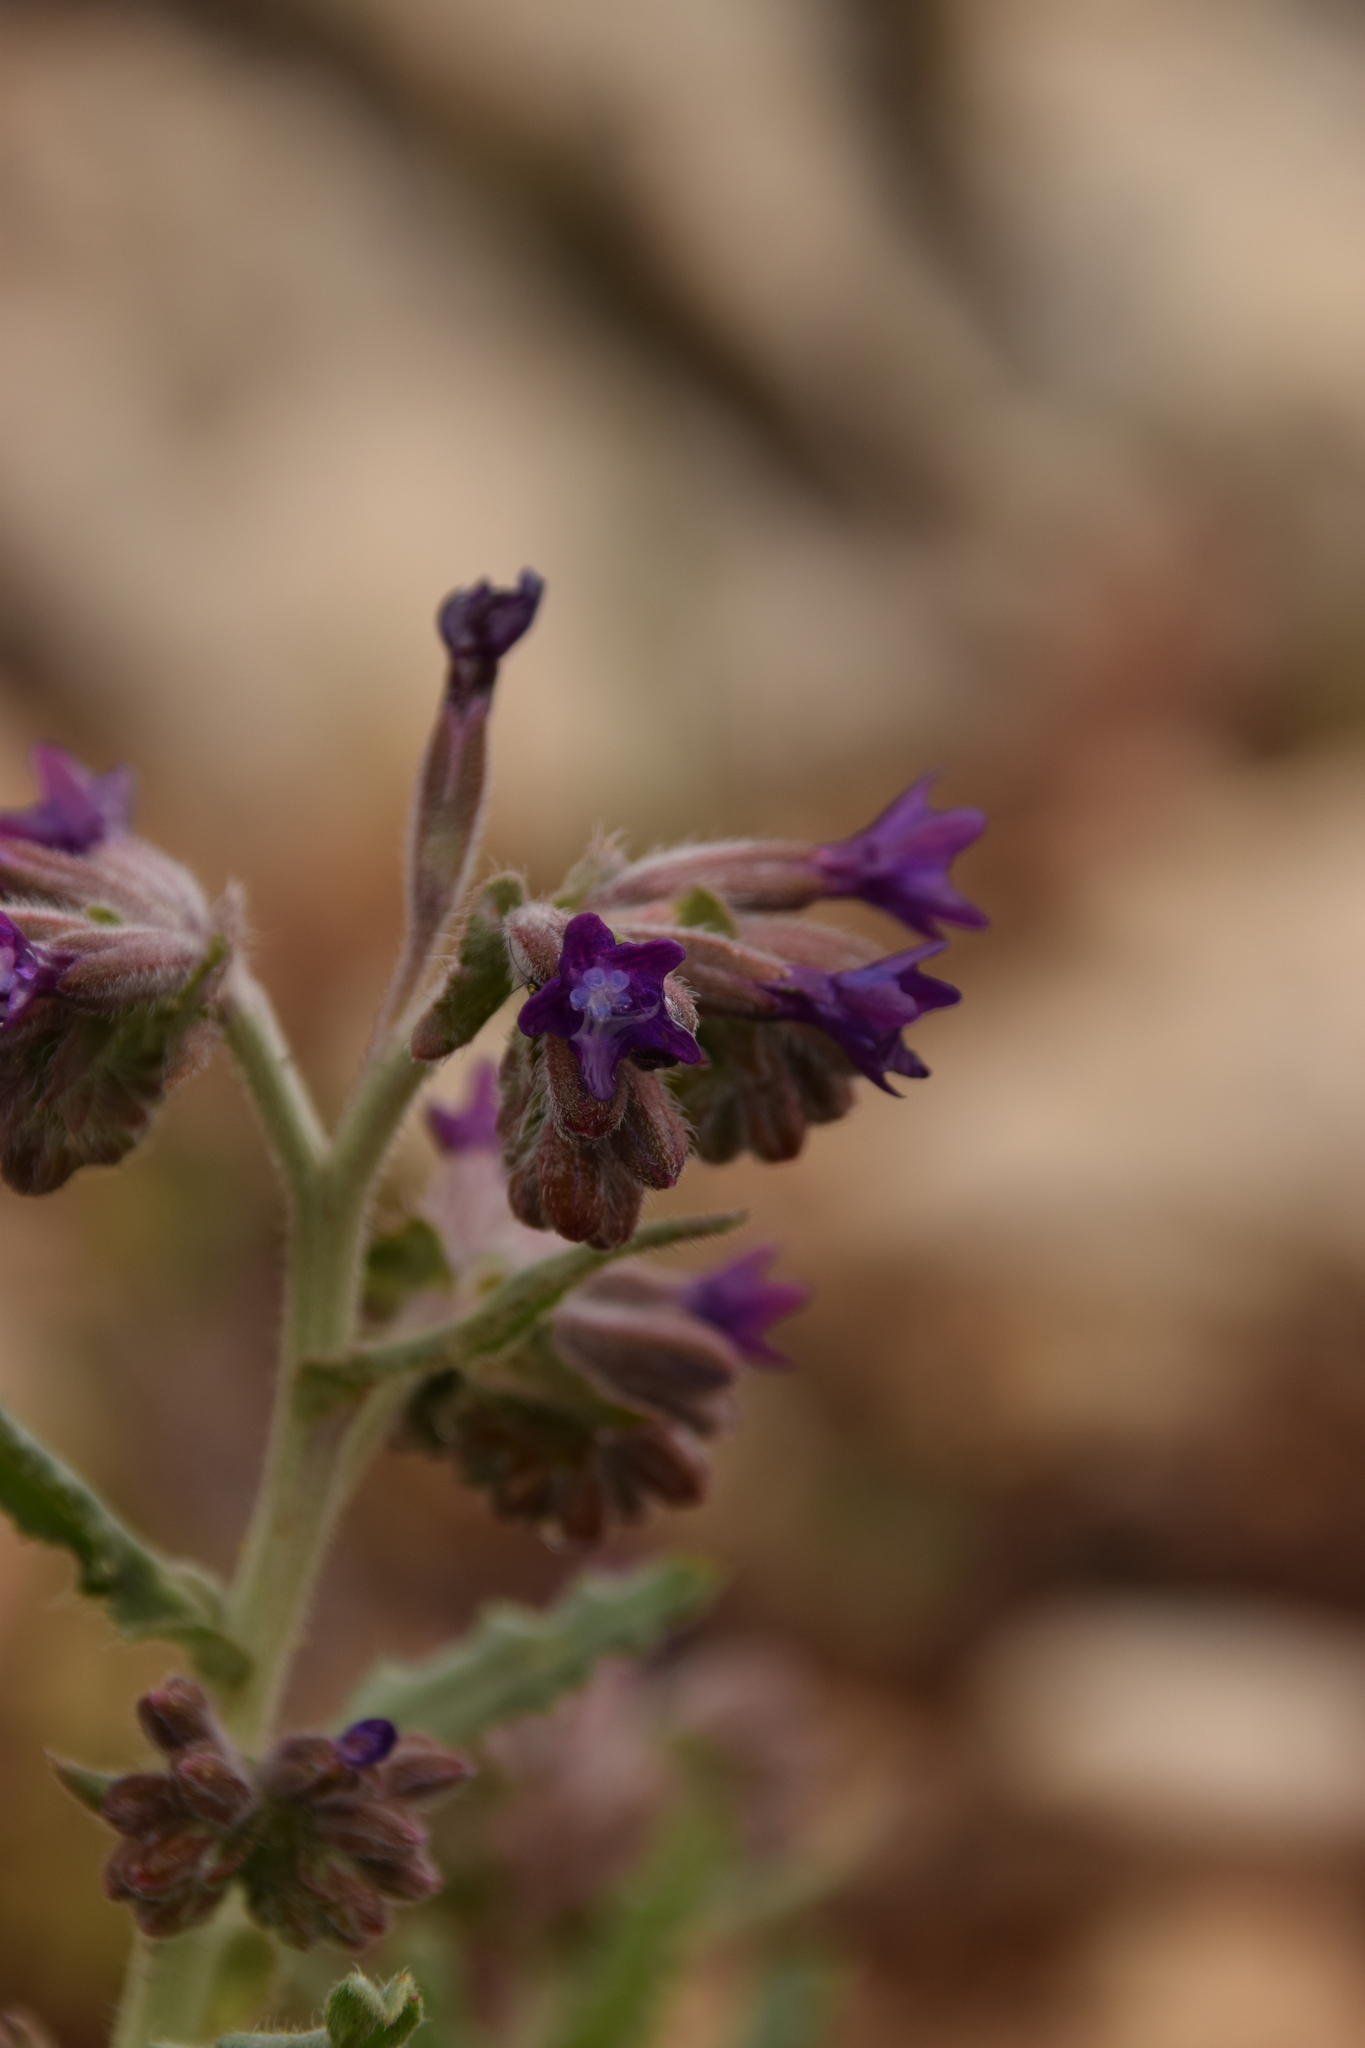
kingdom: Plantae
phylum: Tracheophyta
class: Magnoliopsida
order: Boraginales
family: Boraginaceae
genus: Anchusa
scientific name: Anchusa undulata
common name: Undulate alkanet
